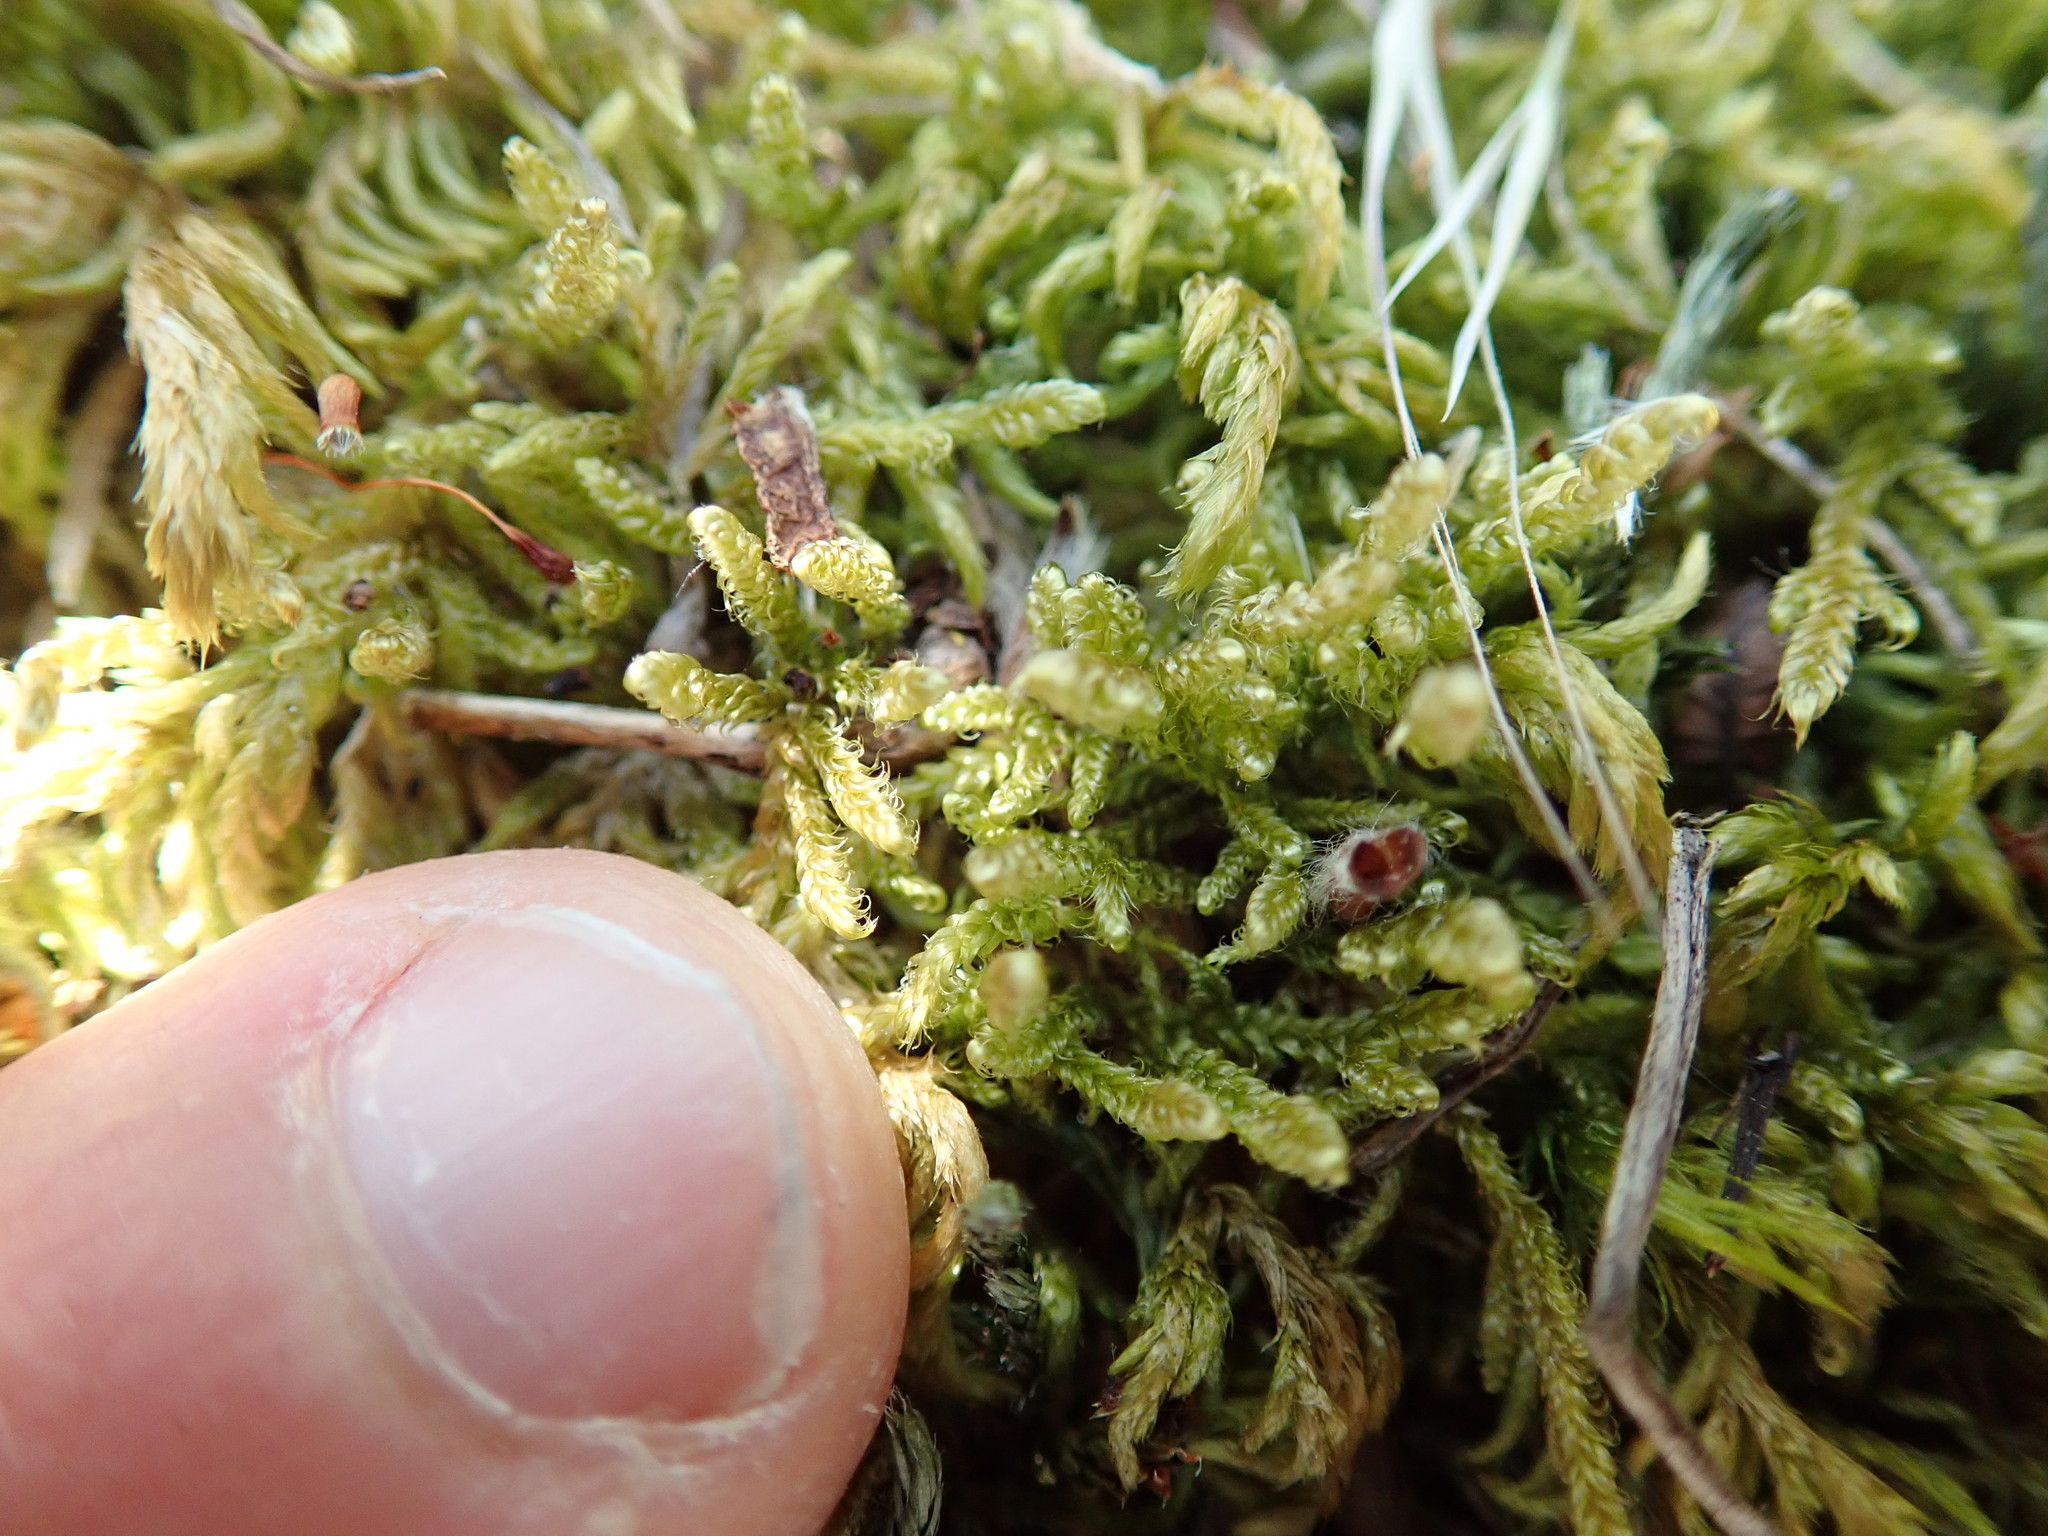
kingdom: Plantae
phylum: Bryophyta
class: Bryopsida
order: Hypnales
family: Stereodontaceae
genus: Stereodon
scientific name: Stereodon subimponens
